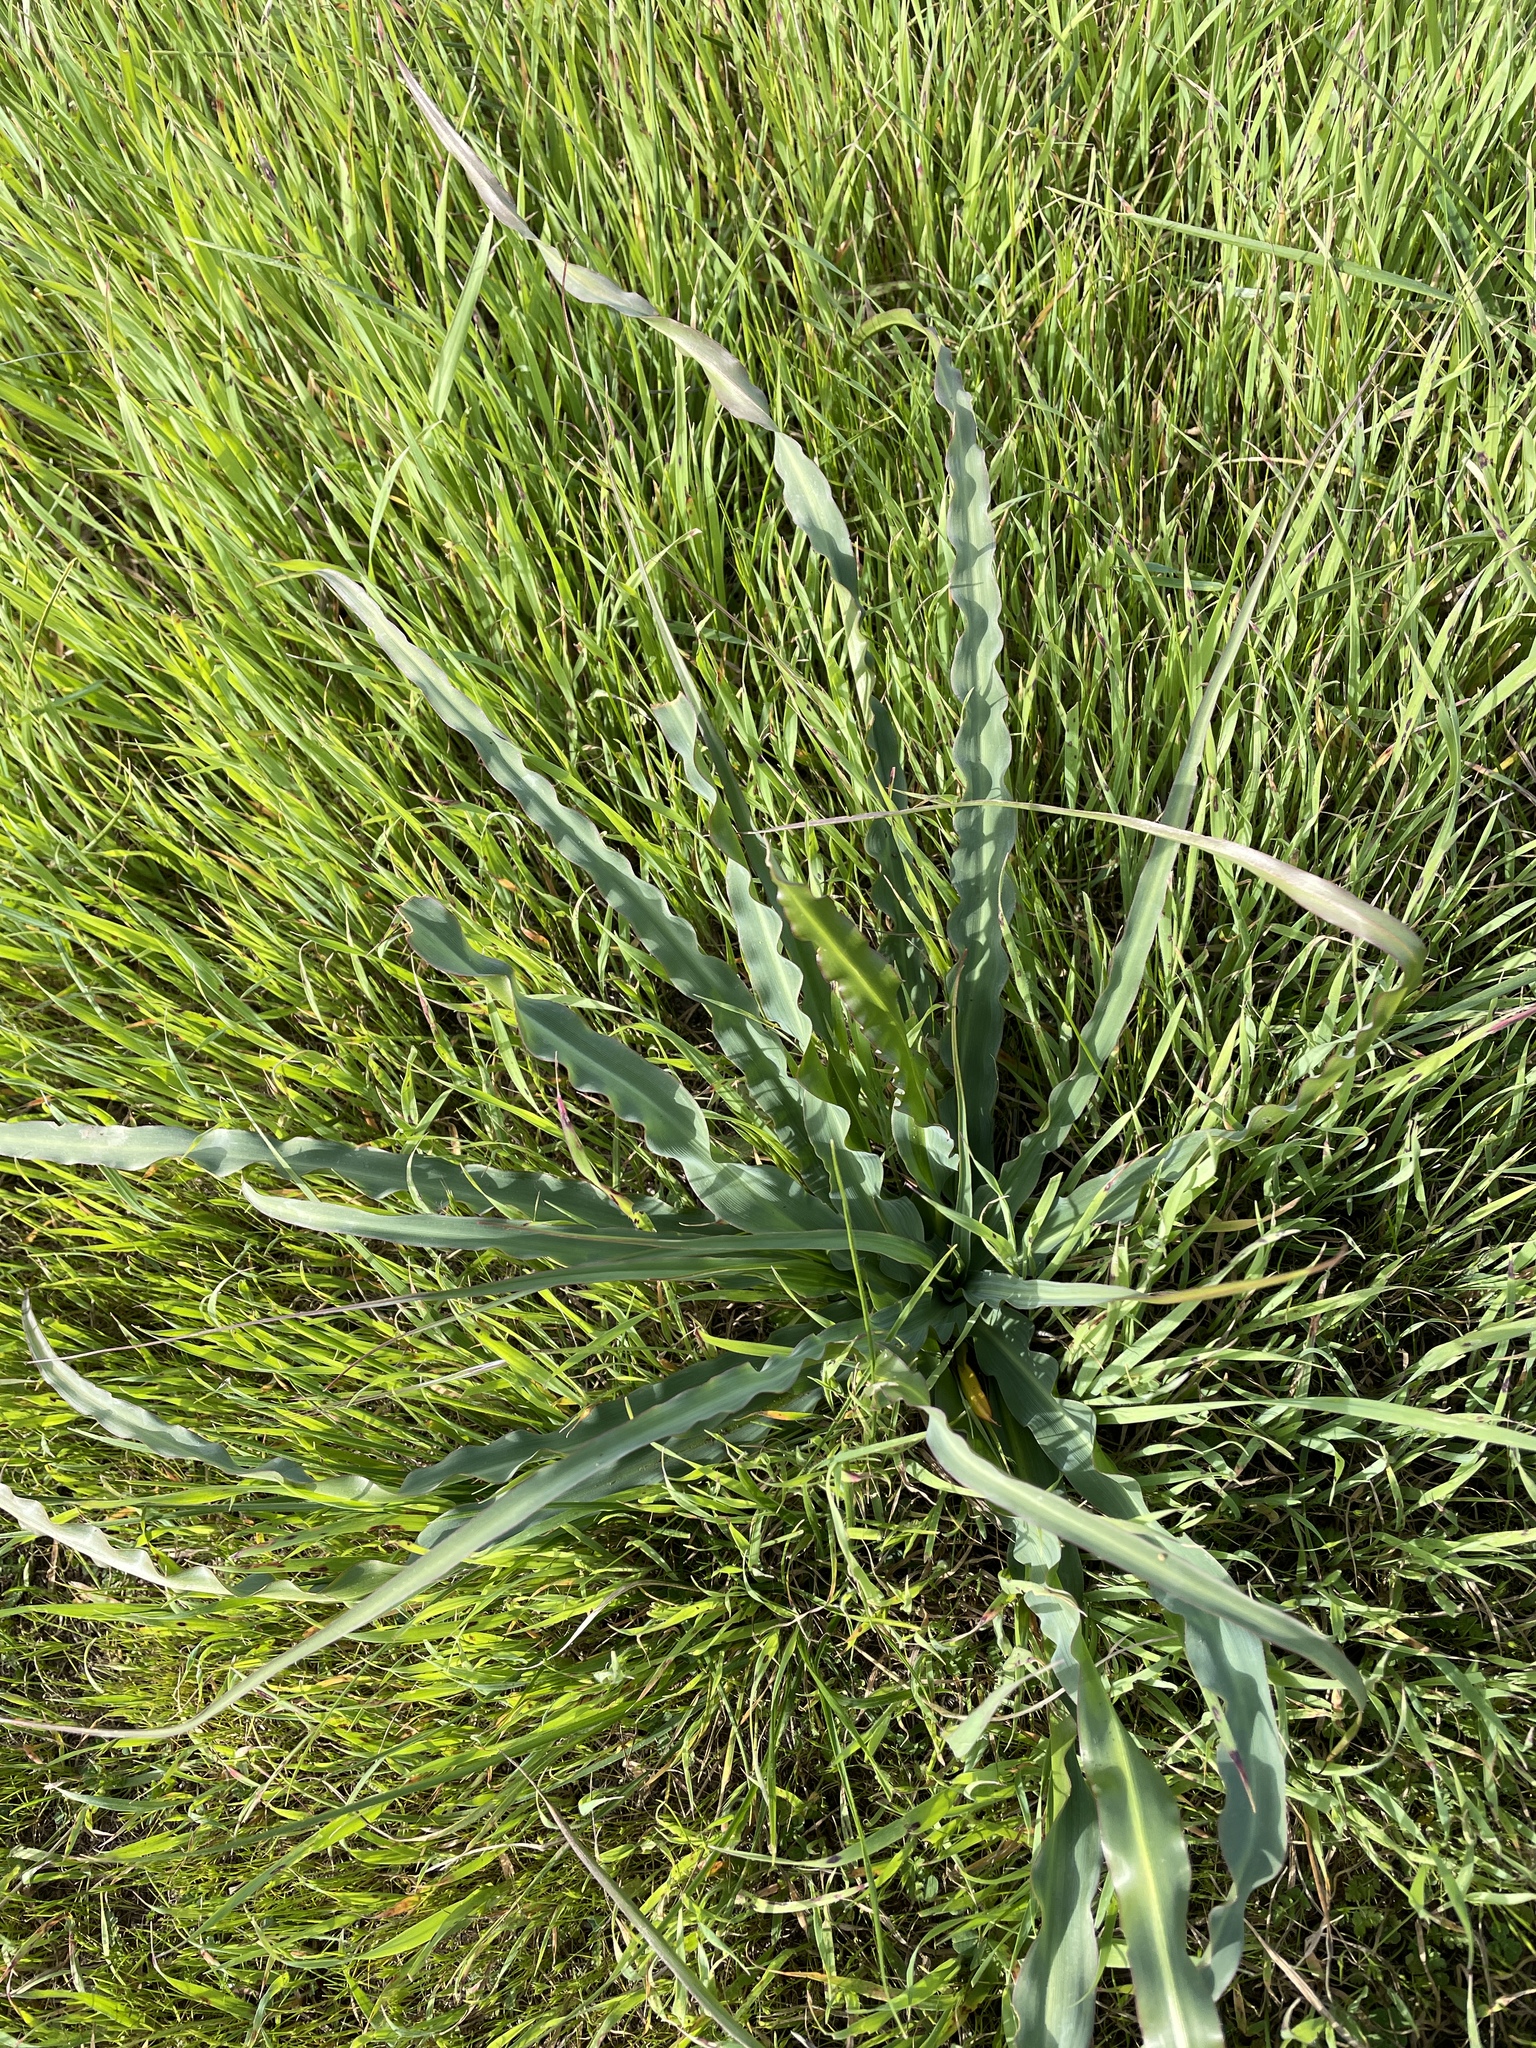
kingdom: Plantae
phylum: Tracheophyta
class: Liliopsida
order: Asparagales
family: Asparagaceae
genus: Chlorogalum
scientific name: Chlorogalum pomeridianum
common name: Amole
